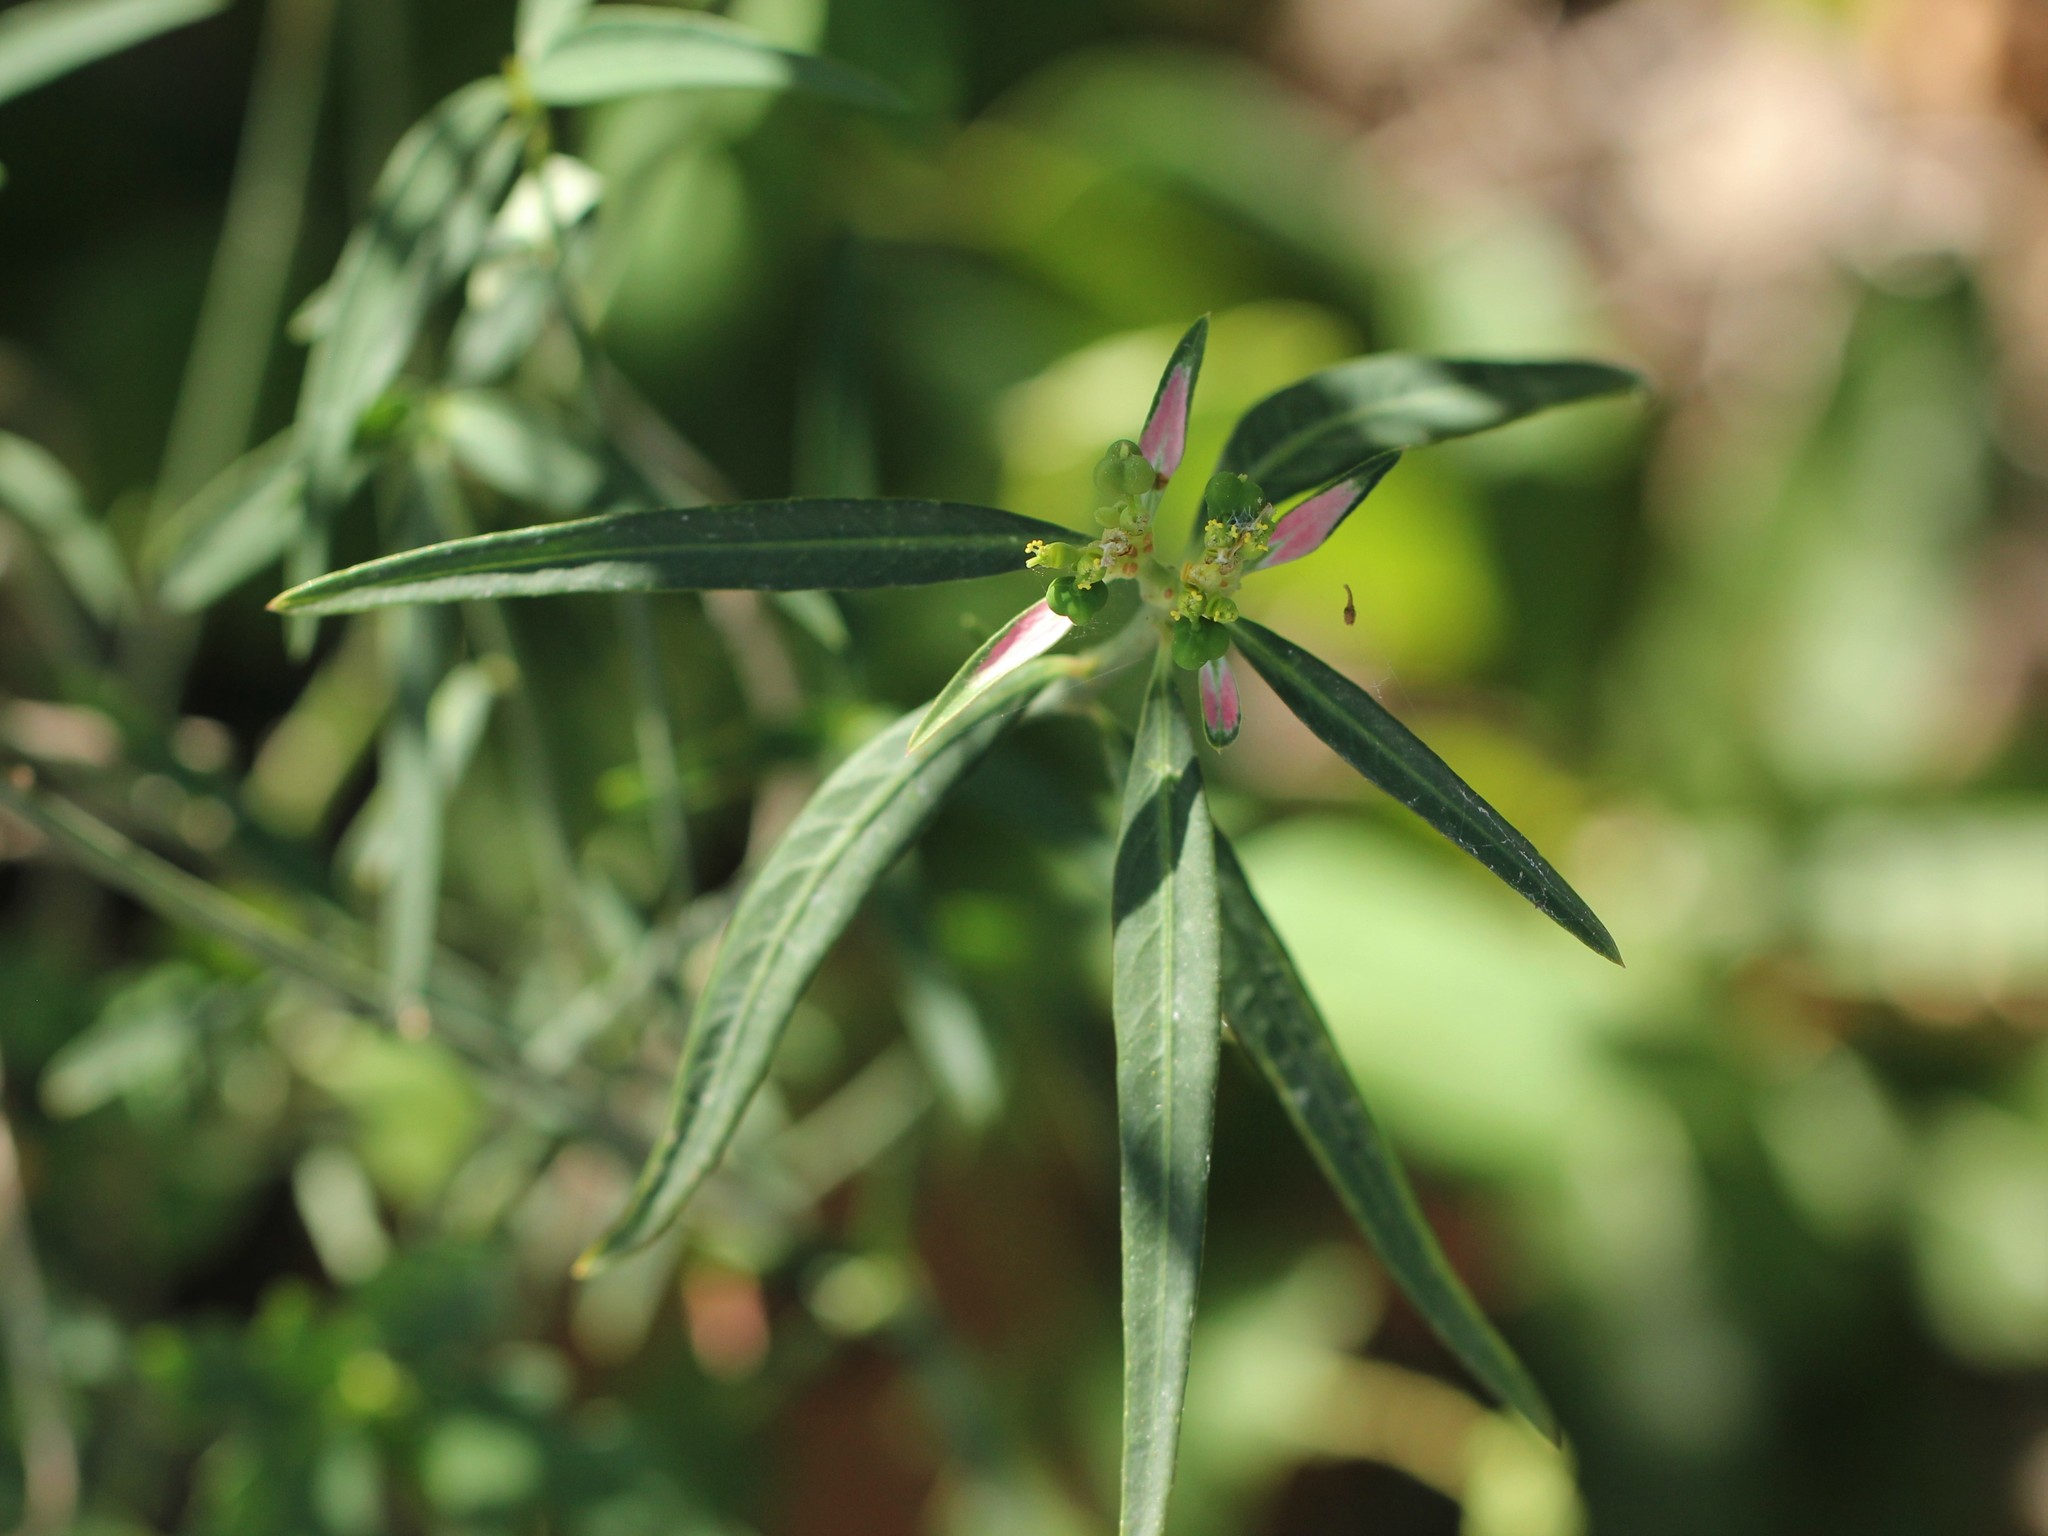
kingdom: Plantae
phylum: Tracheophyta
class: Magnoliopsida
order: Malpighiales
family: Euphorbiaceae
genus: Euphorbia
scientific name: Euphorbia heterophylla
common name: Mexican fireplant
